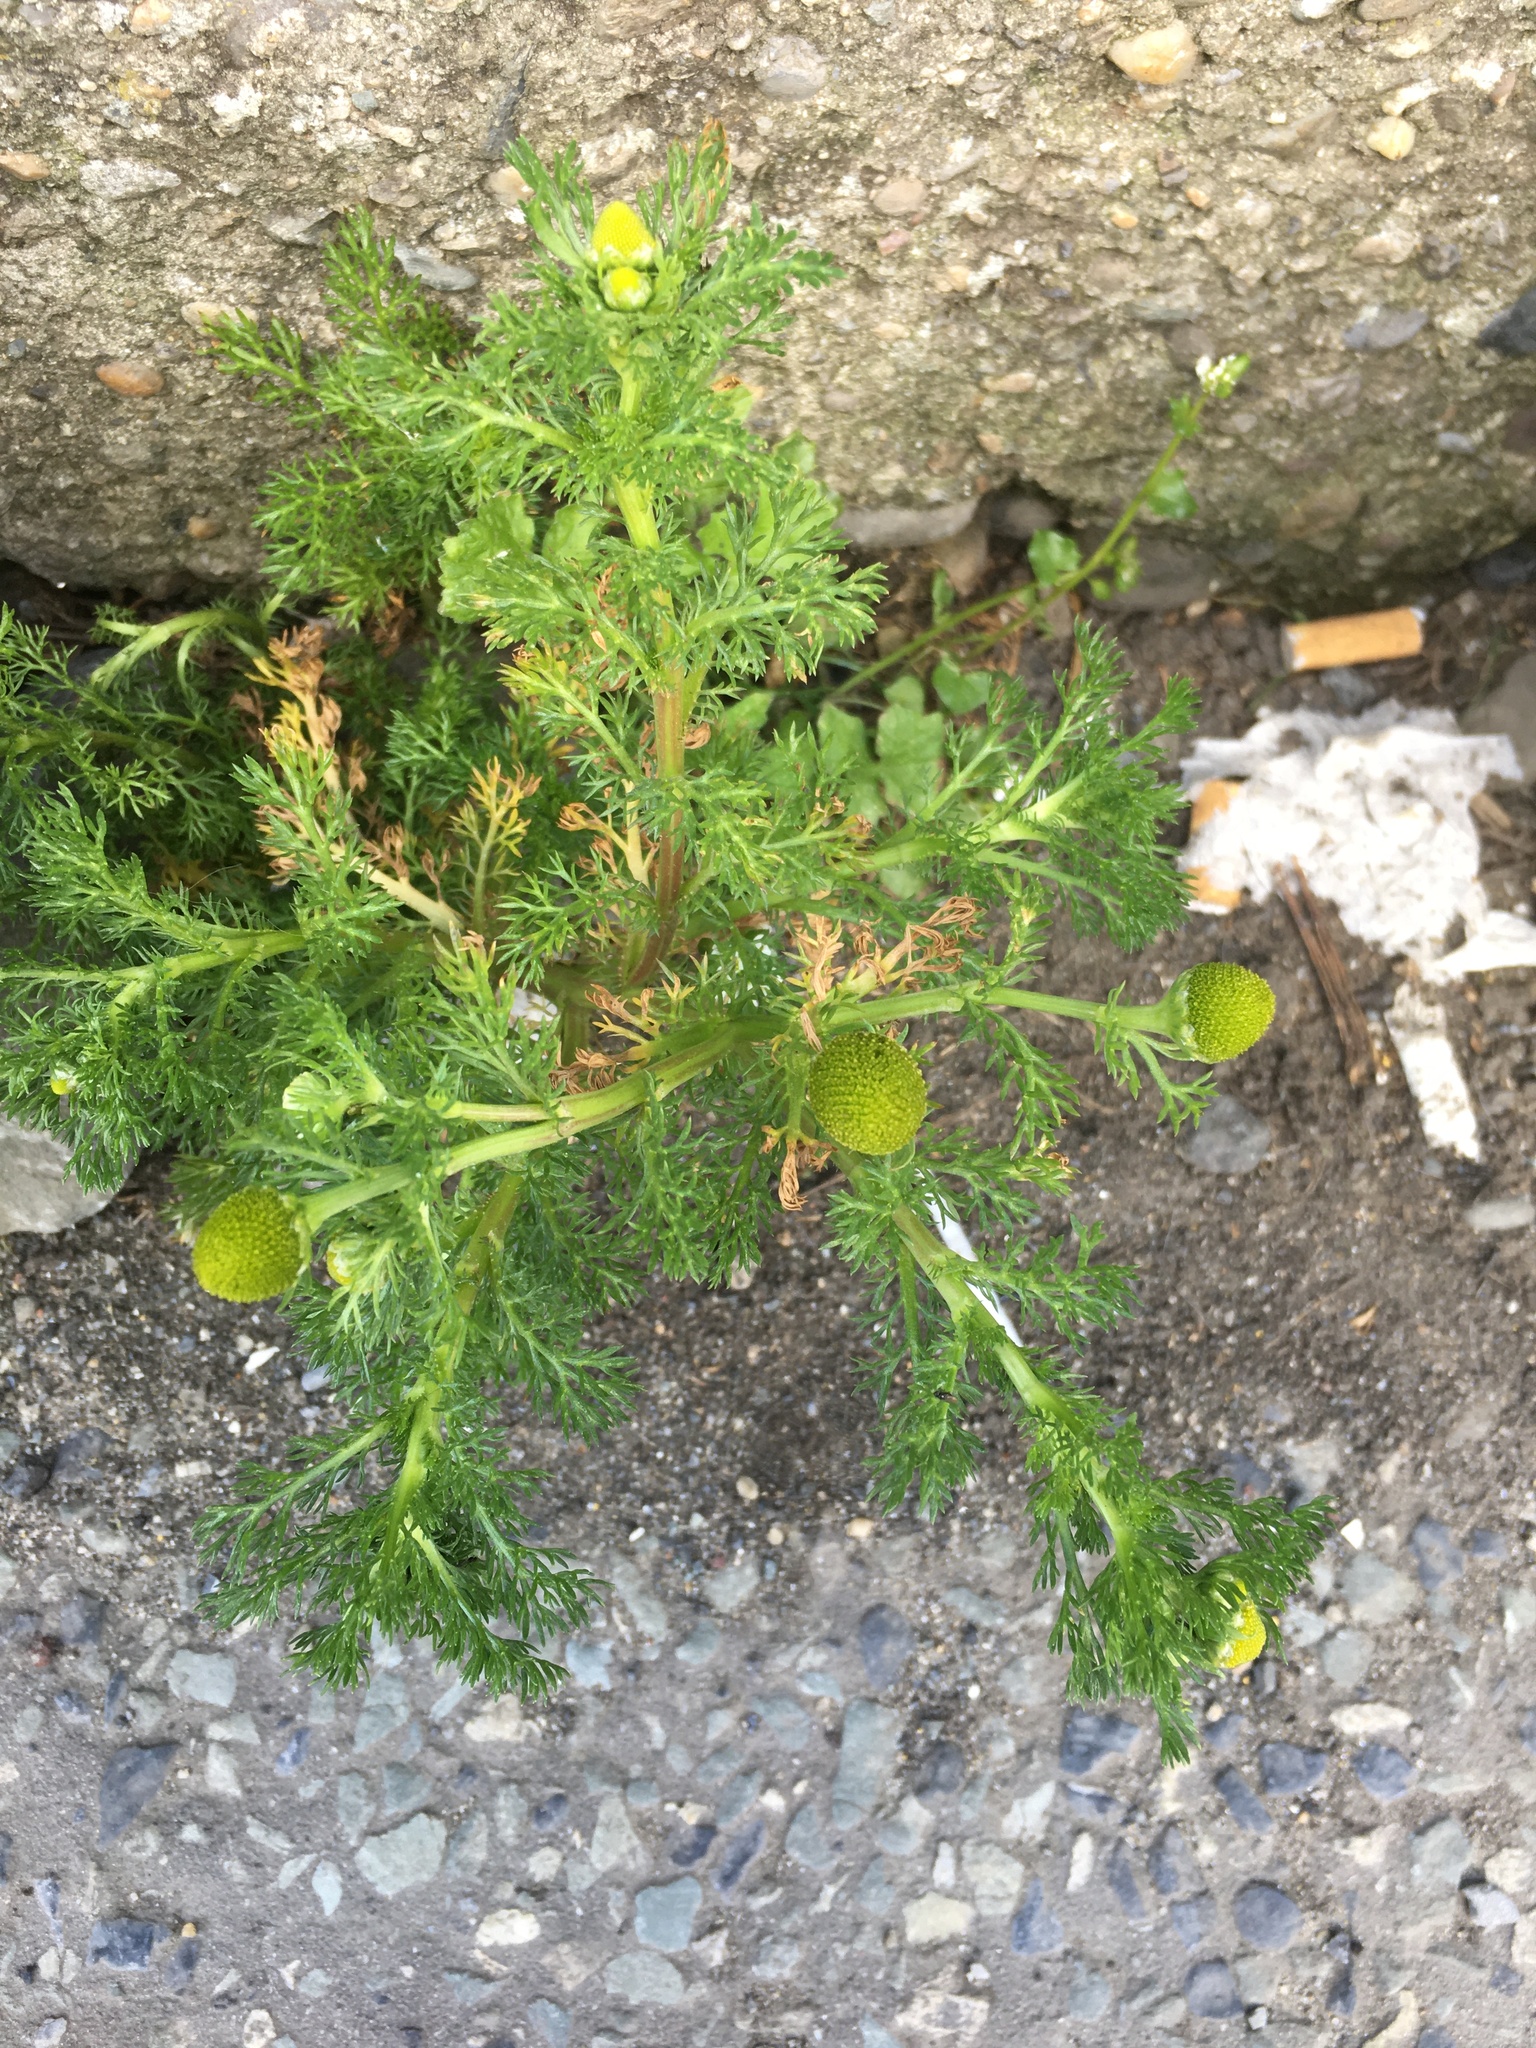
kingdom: Plantae
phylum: Tracheophyta
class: Magnoliopsida
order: Asterales
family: Asteraceae
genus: Matricaria
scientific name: Matricaria discoidea
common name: Disc mayweed
